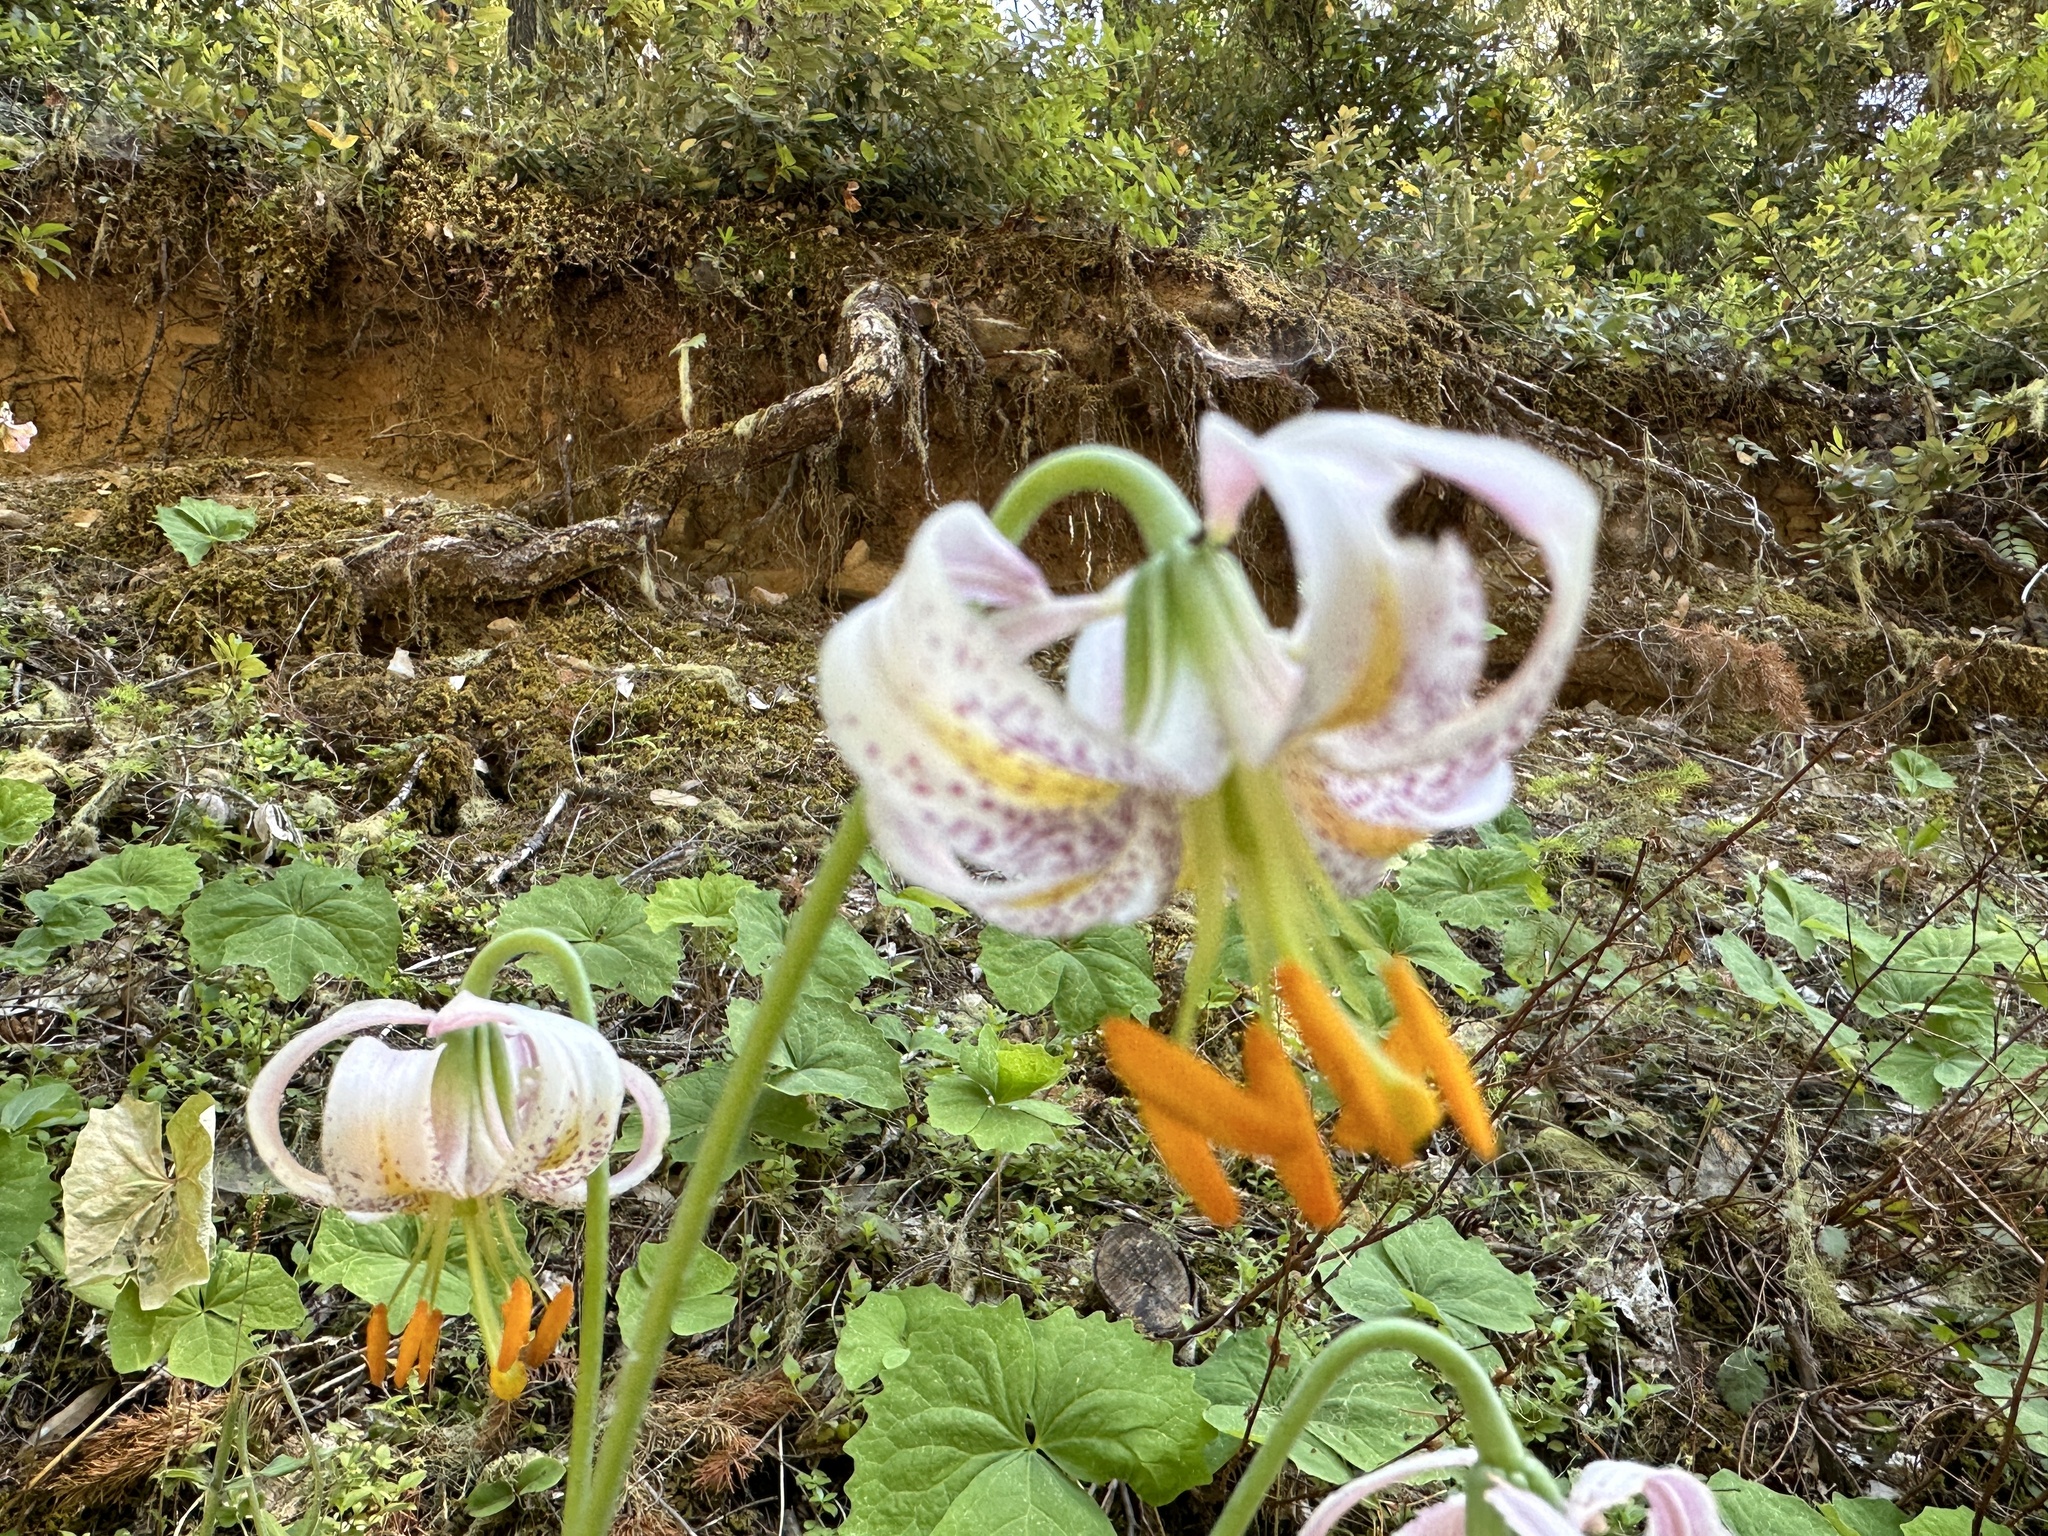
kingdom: Plantae
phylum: Tracheophyta
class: Liliopsida
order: Liliales
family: Liliaceae
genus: Lilium
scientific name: Lilium kelloggii
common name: Kellogg's lily
